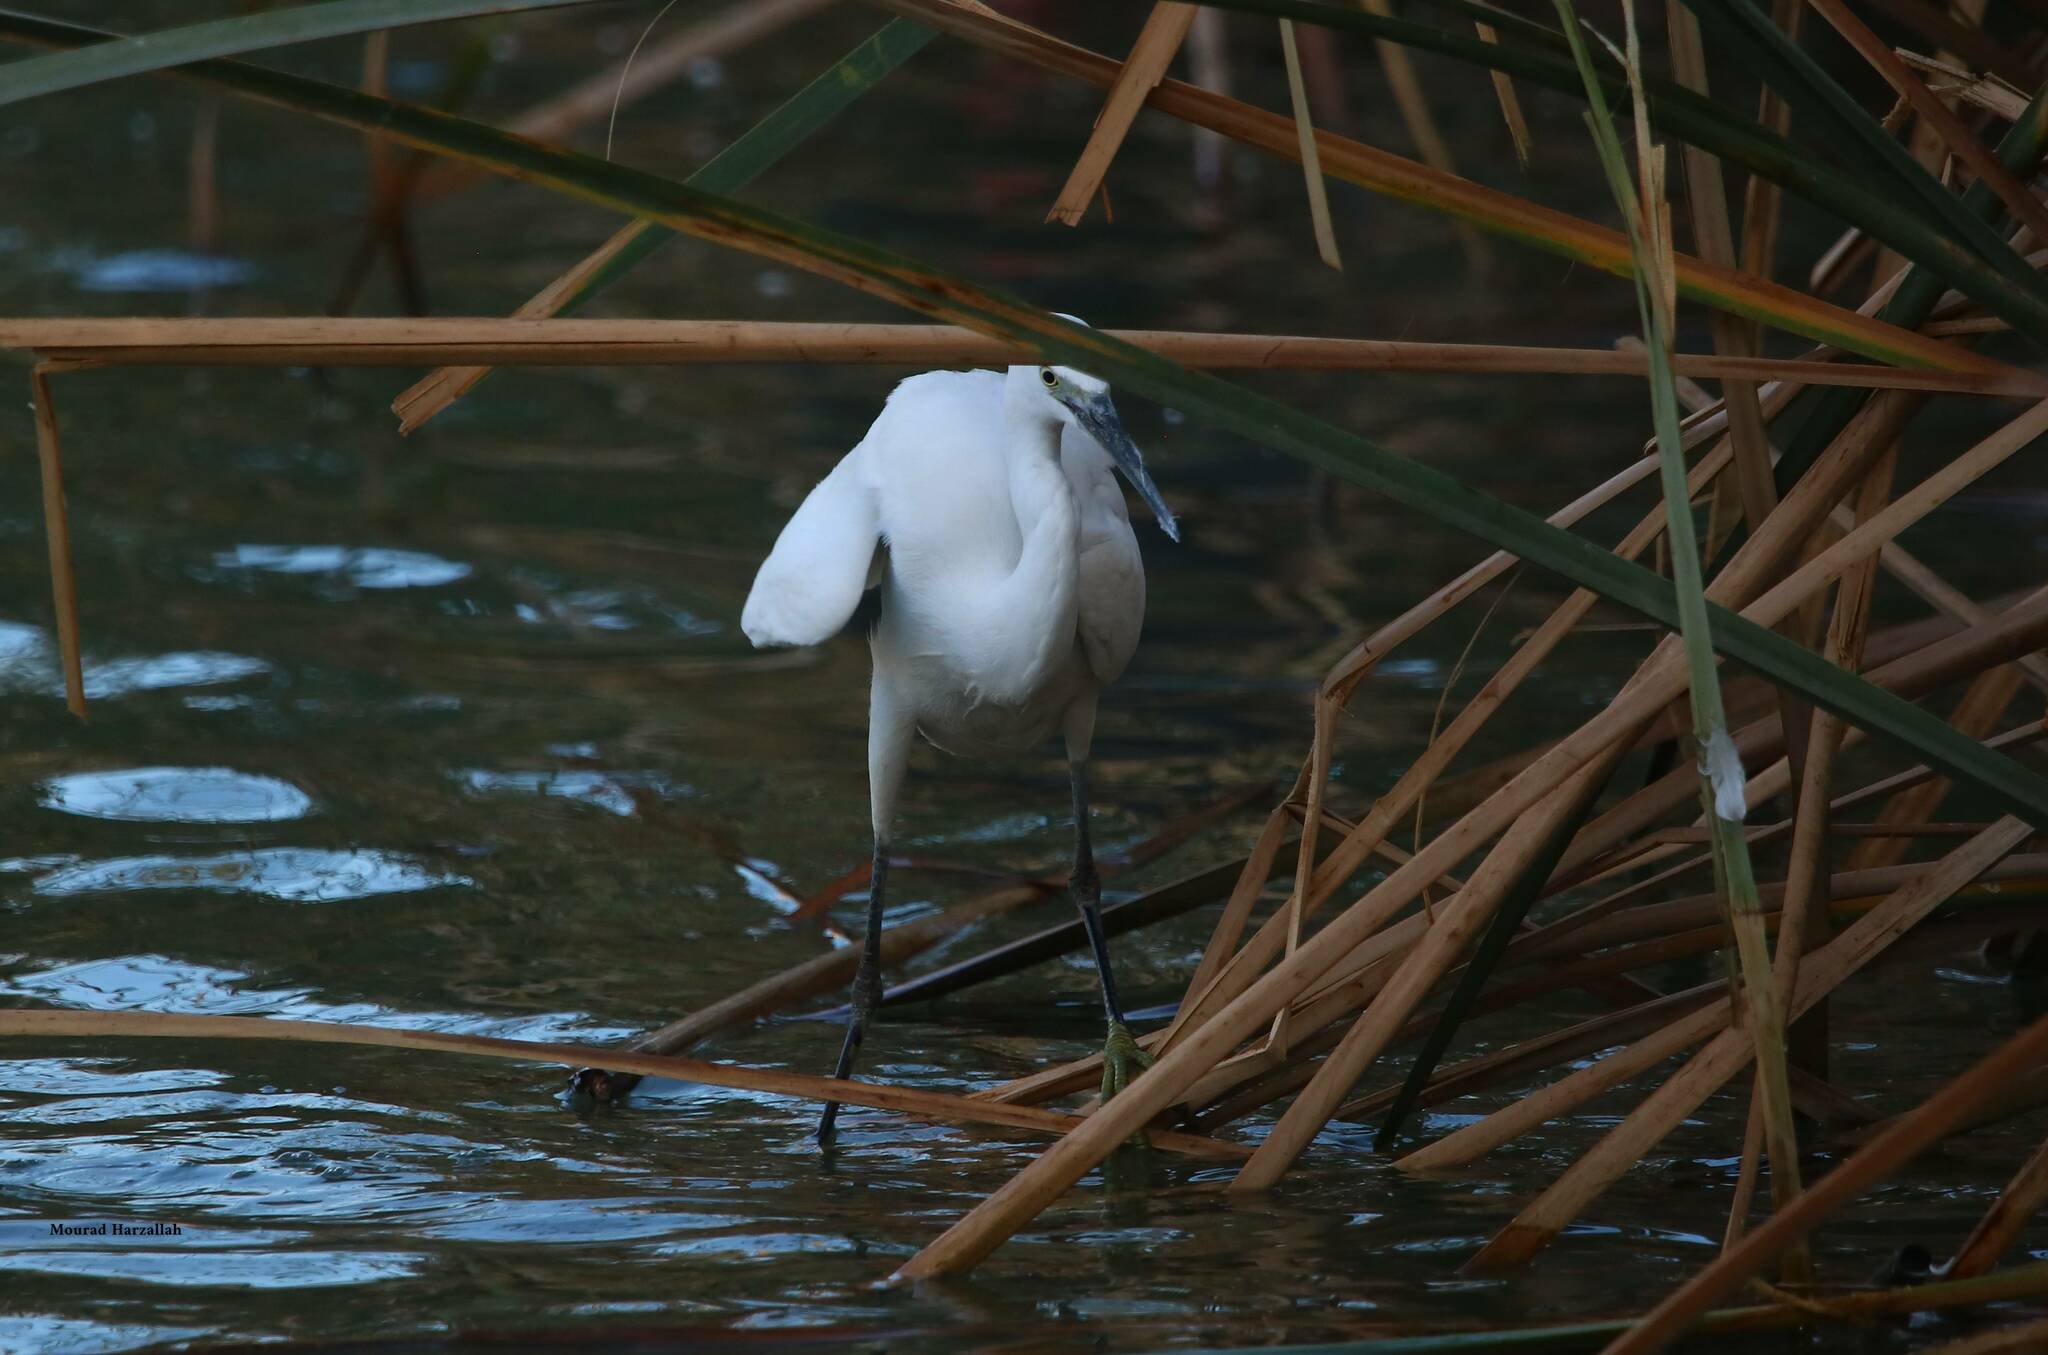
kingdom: Animalia
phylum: Chordata
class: Aves
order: Pelecaniformes
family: Ardeidae
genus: Egretta
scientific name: Egretta garzetta
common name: Little egret
